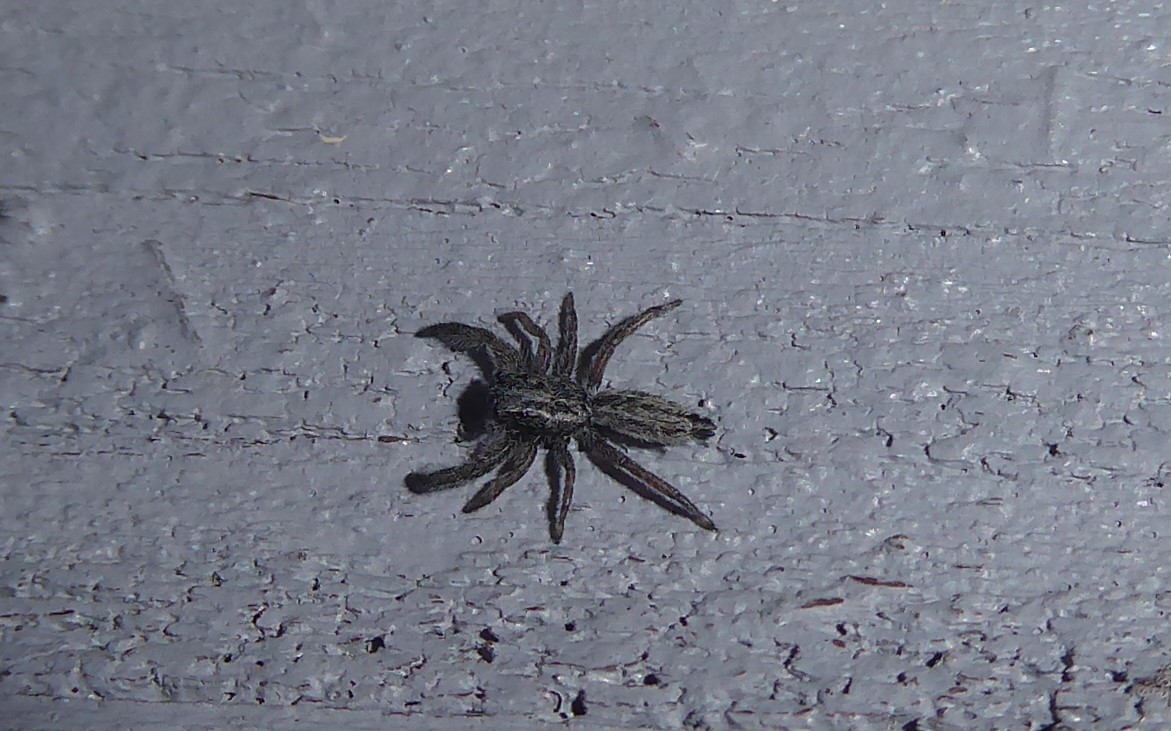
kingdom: Animalia
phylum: Arthropoda
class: Arachnida
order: Araneae
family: Salticidae
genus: Holoplatys
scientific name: Holoplatys apressus
